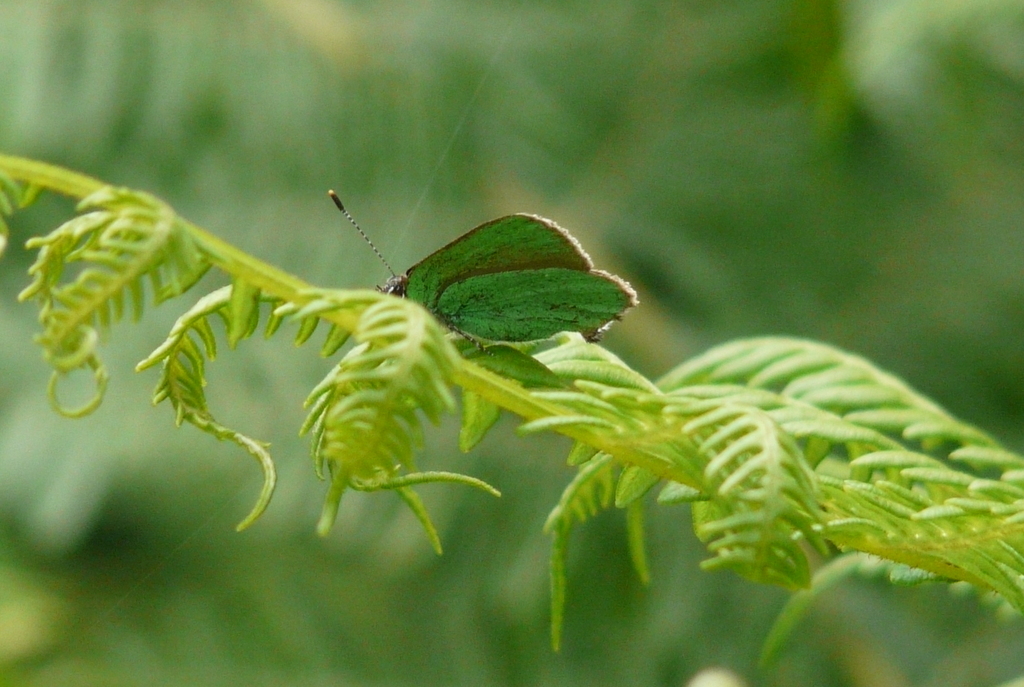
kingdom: Animalia
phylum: Arthropoda
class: Insecta
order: Lepidoptera
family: Lycaenidae
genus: Callophrys
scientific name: Callophrys rubi
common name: Green hairstreak
